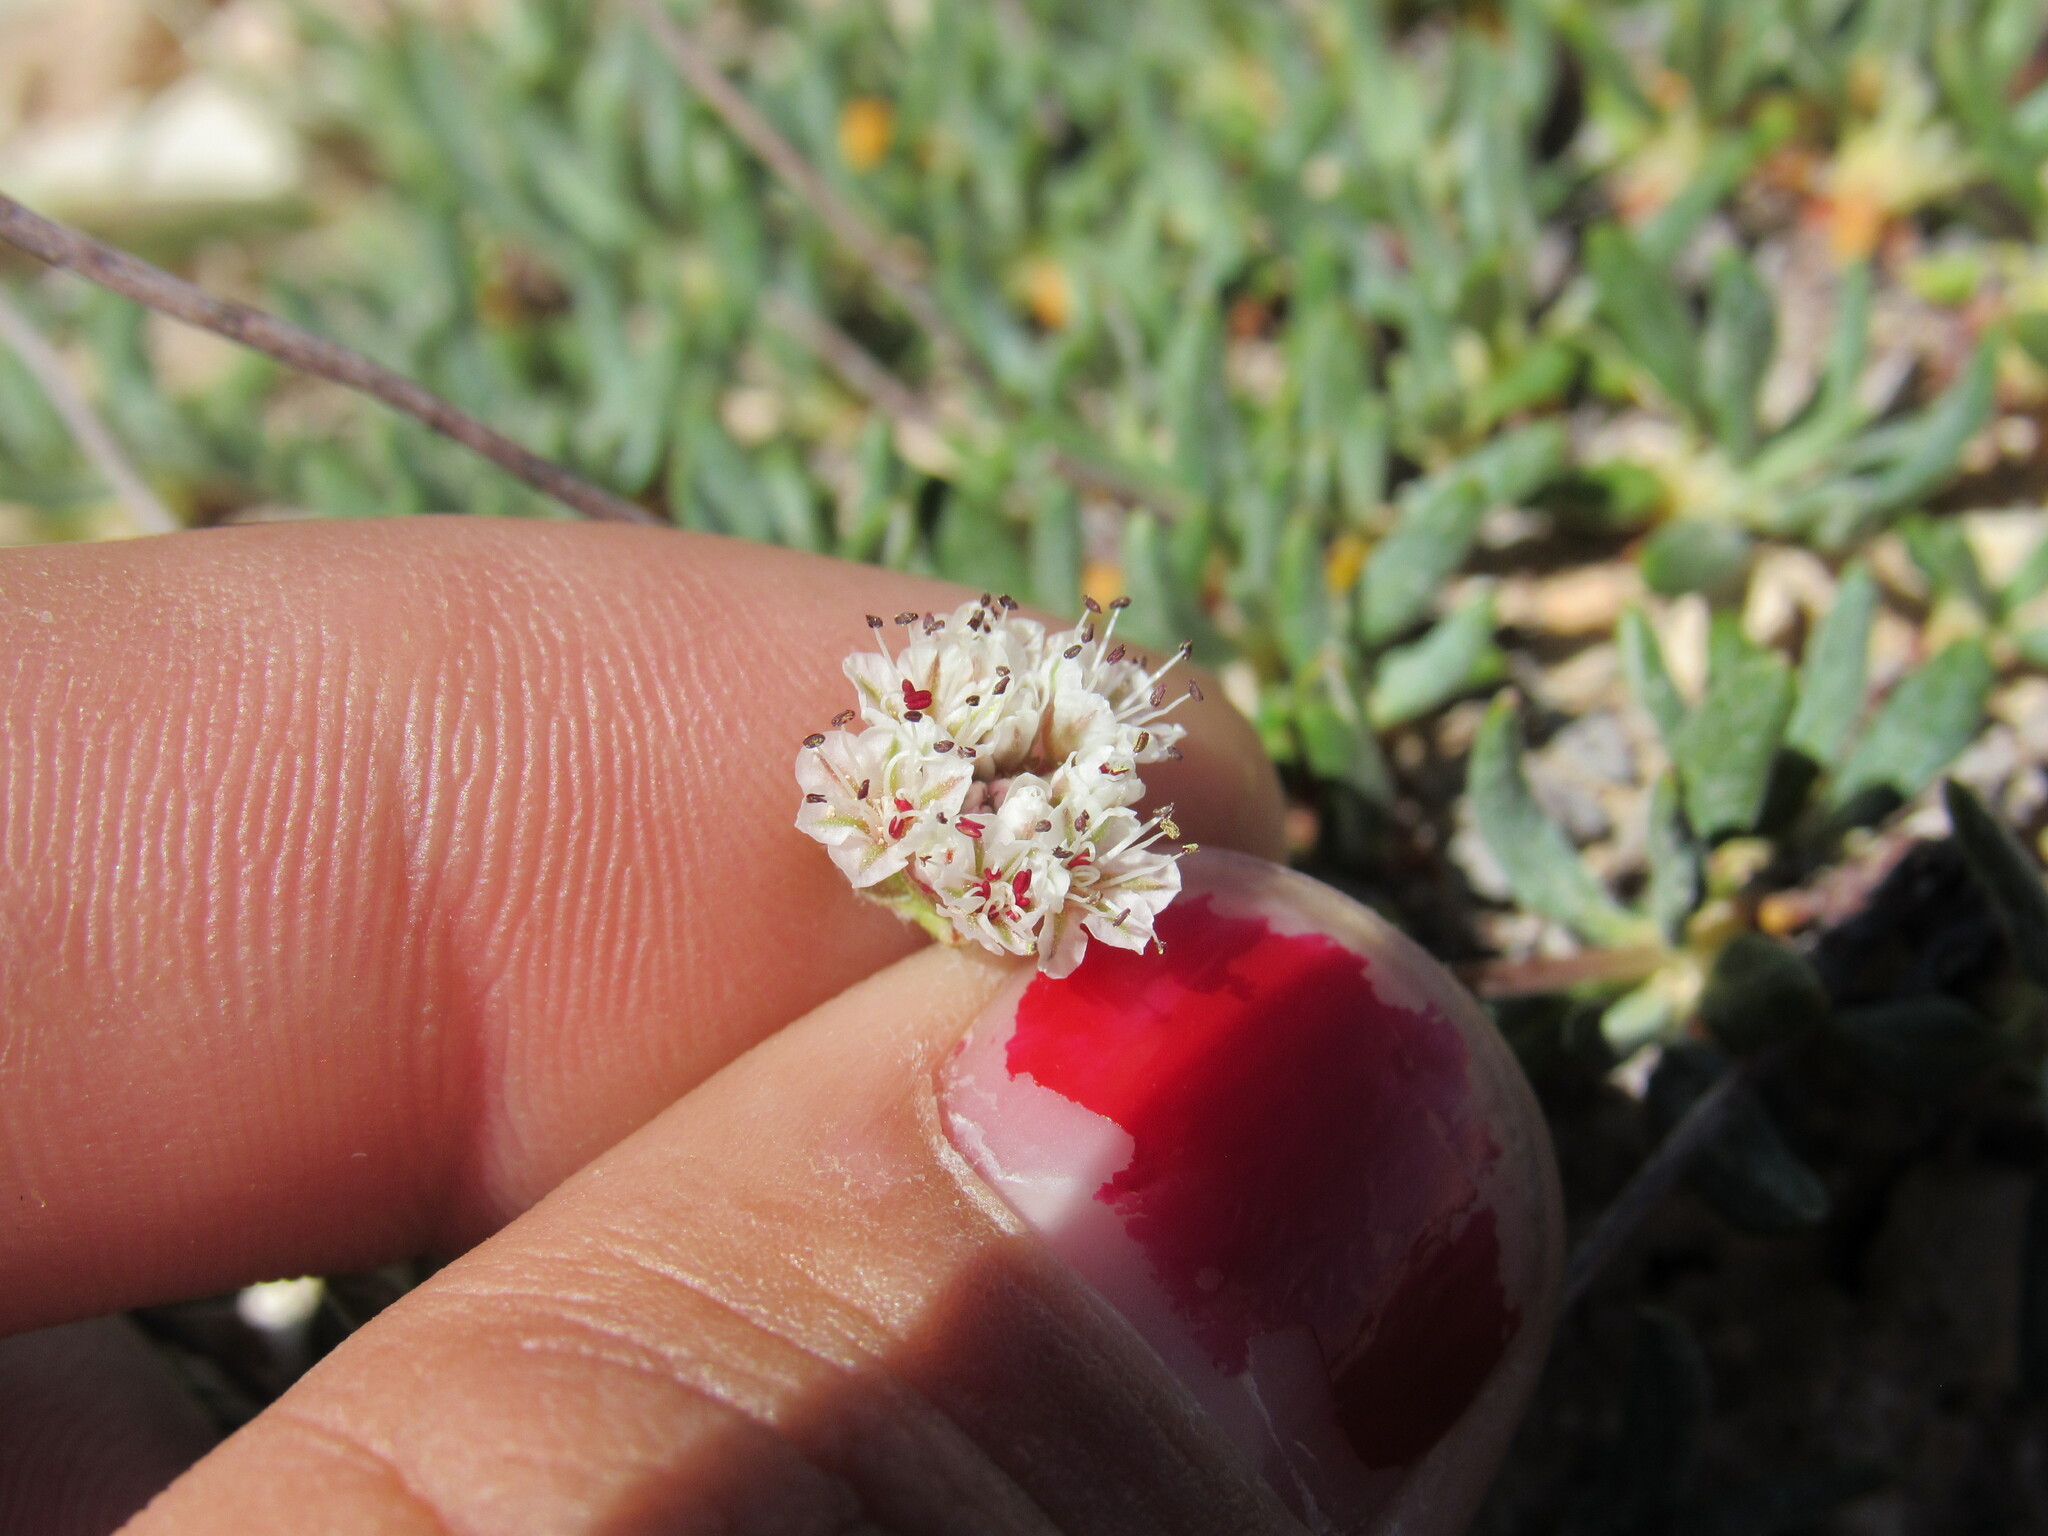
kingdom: Plantae
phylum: Tracheophyta
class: Magnoliopsida
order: Caryophyllales
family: Polygonaceae
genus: Eriogonum
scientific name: Eriogonum panguicense
